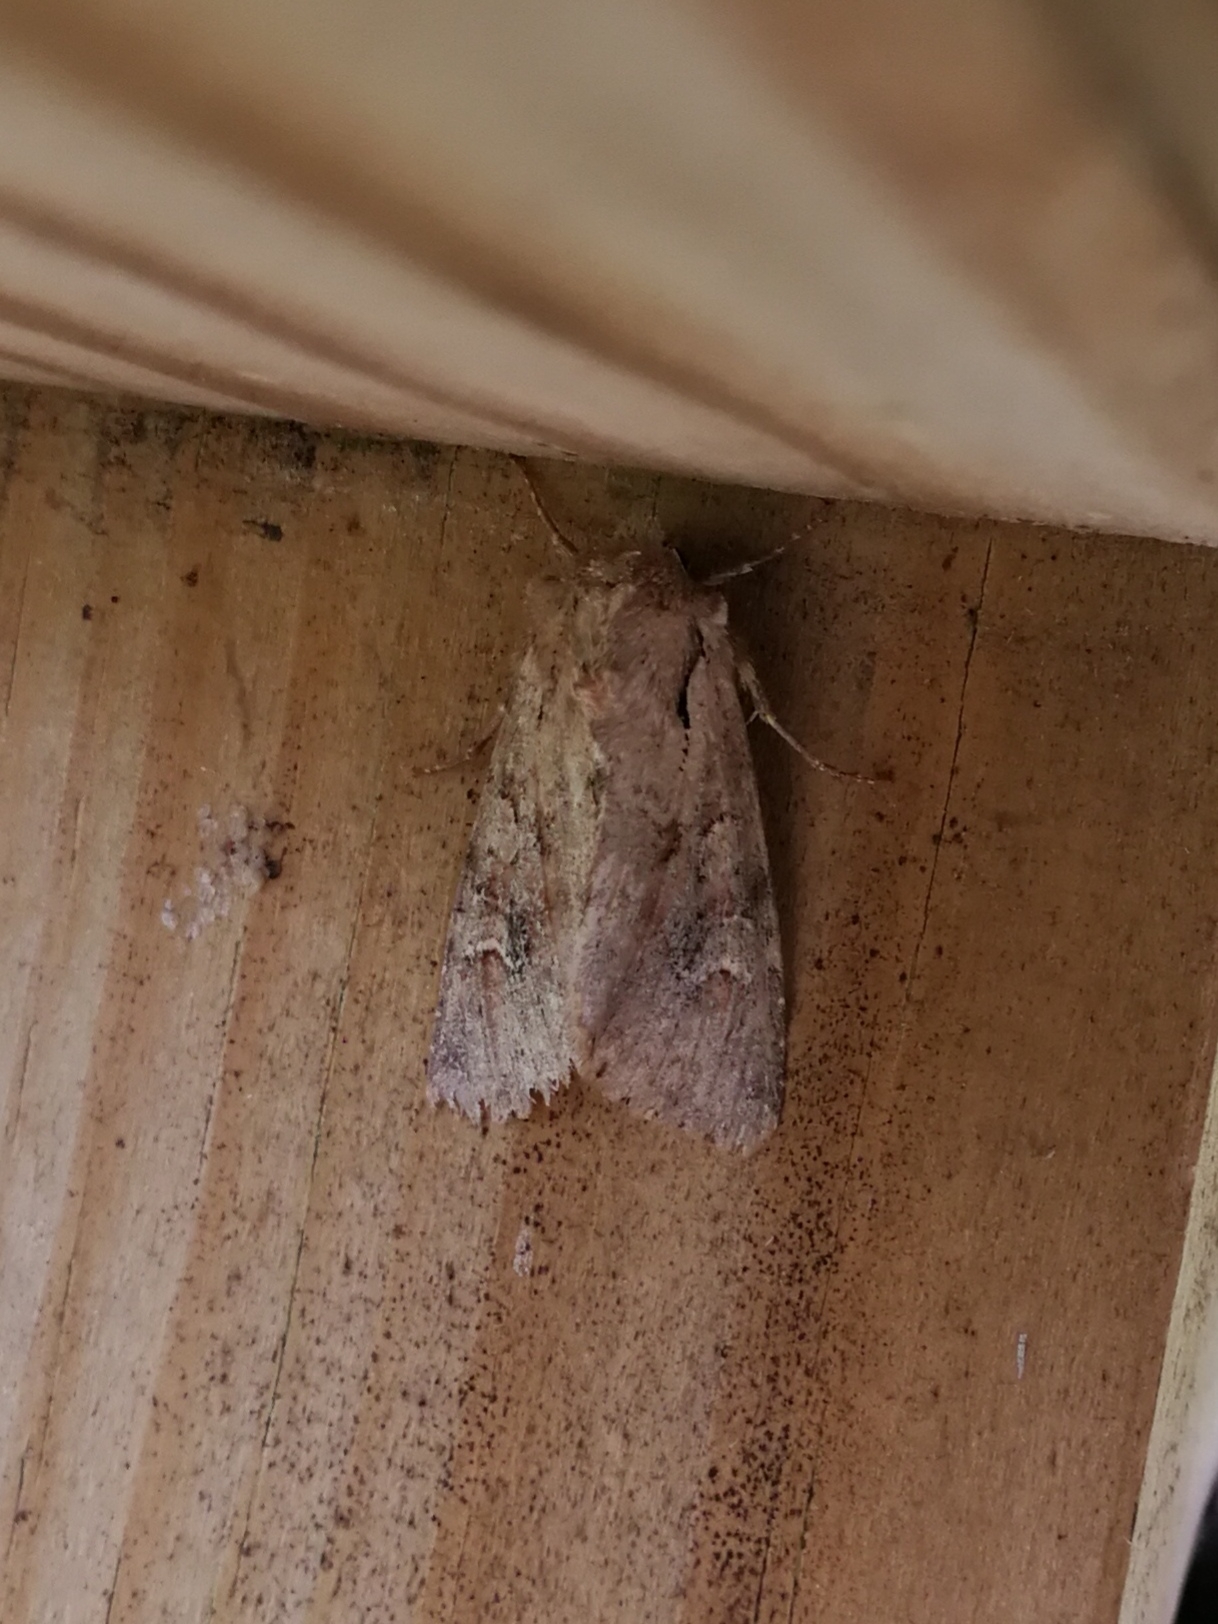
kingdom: Animalia
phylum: Arthropoda
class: Insecta
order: Lepidoptera
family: Noctuidae
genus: Apamea
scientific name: Apamea sordens
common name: Rustic shoulder-knot
